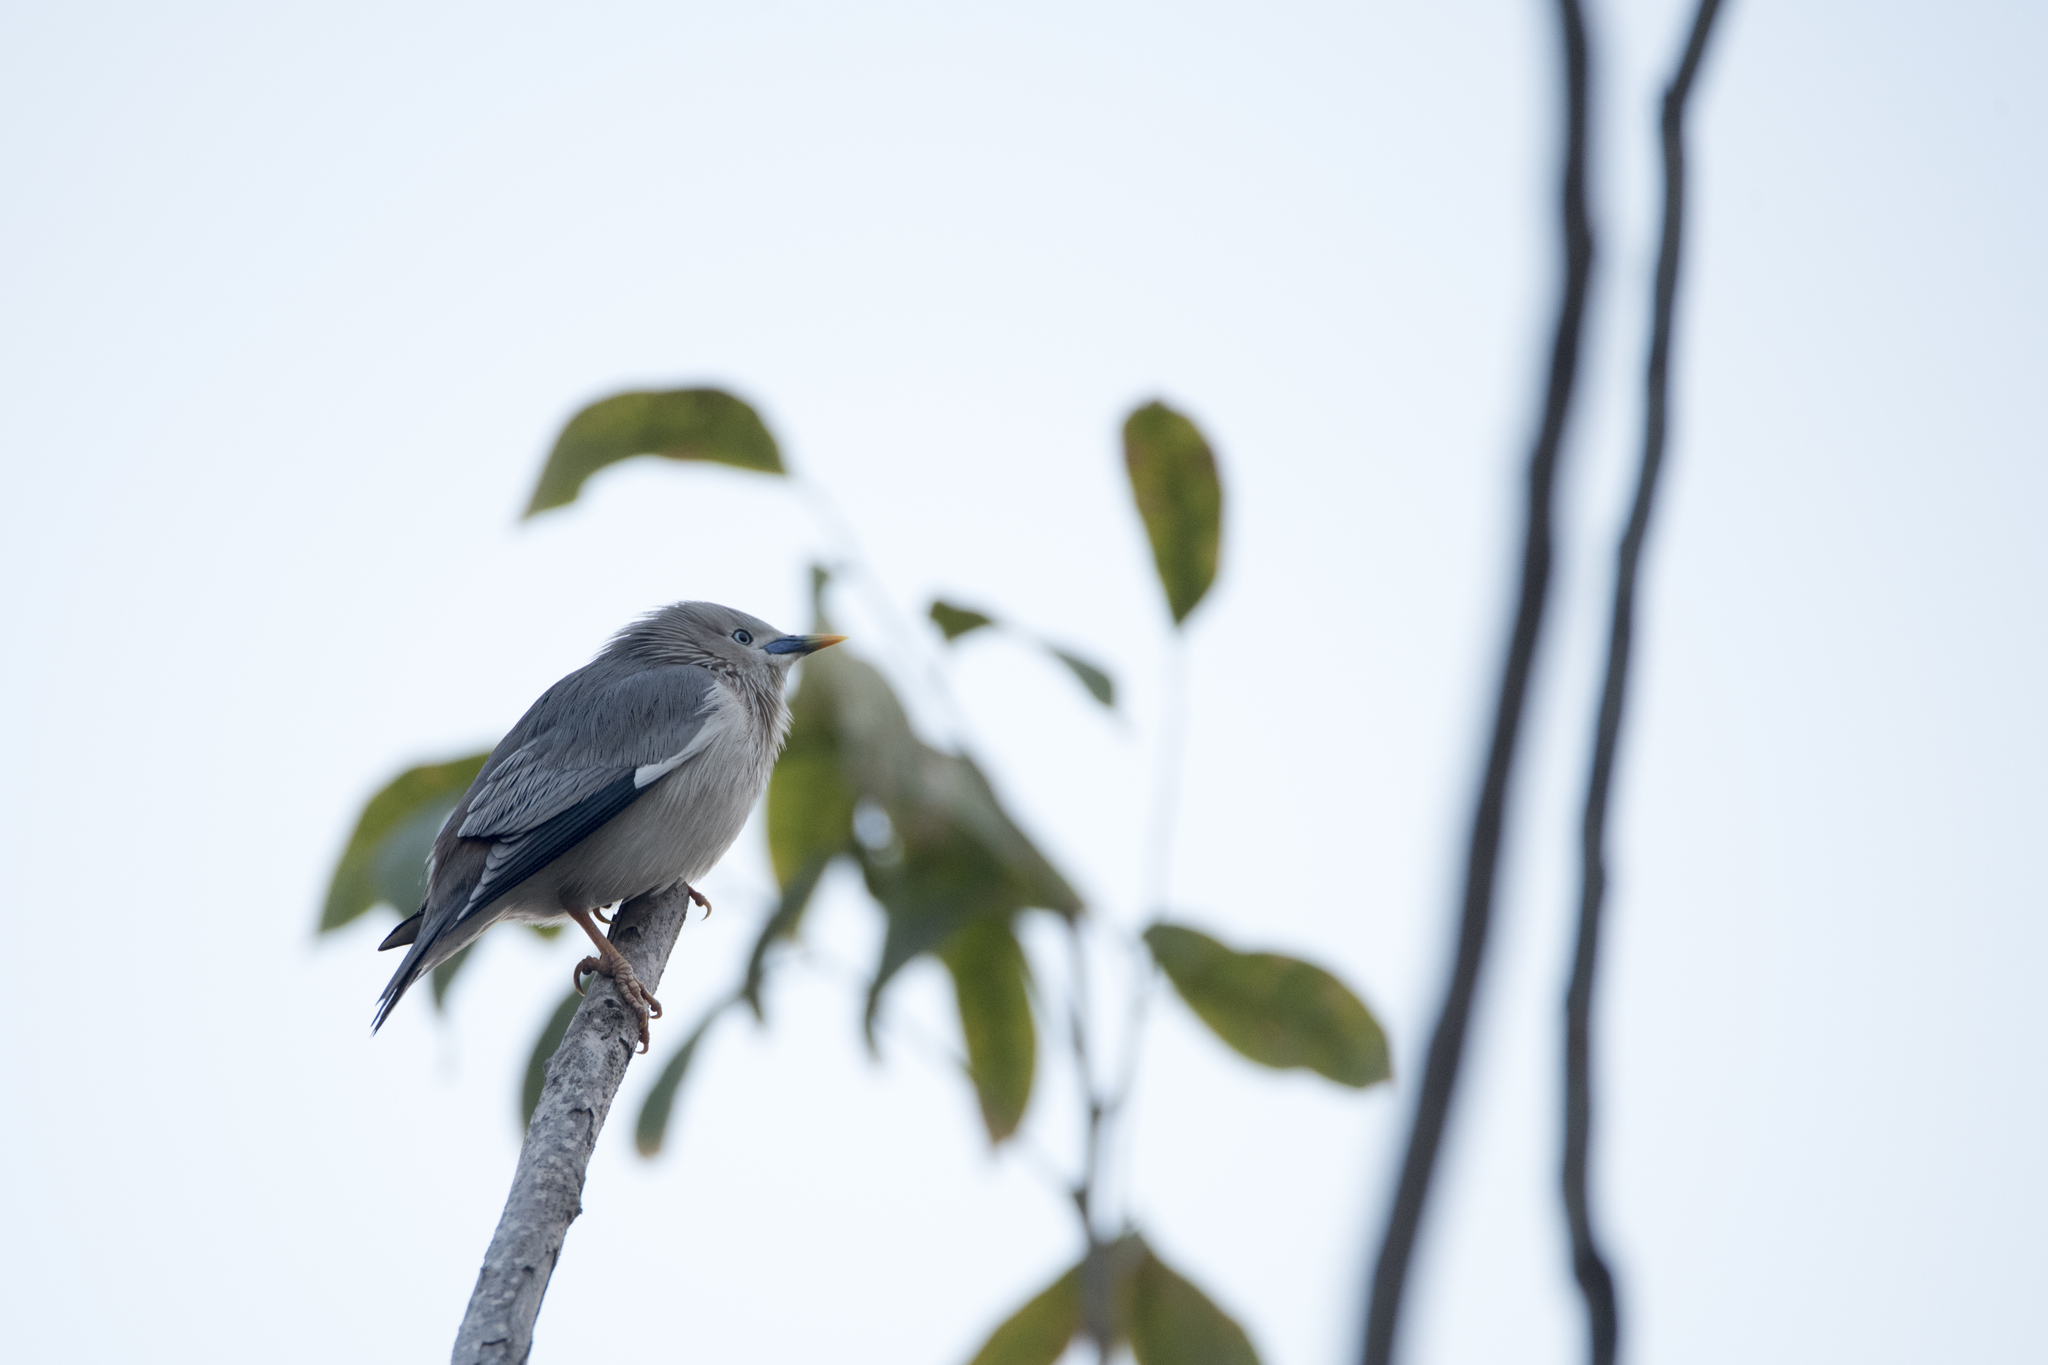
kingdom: Animalia
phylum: Chordata
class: Aves
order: Passeriformes
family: Sturnidae
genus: Sturnia
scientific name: Sturnia malabarica
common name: Chestnut-tailed starling
